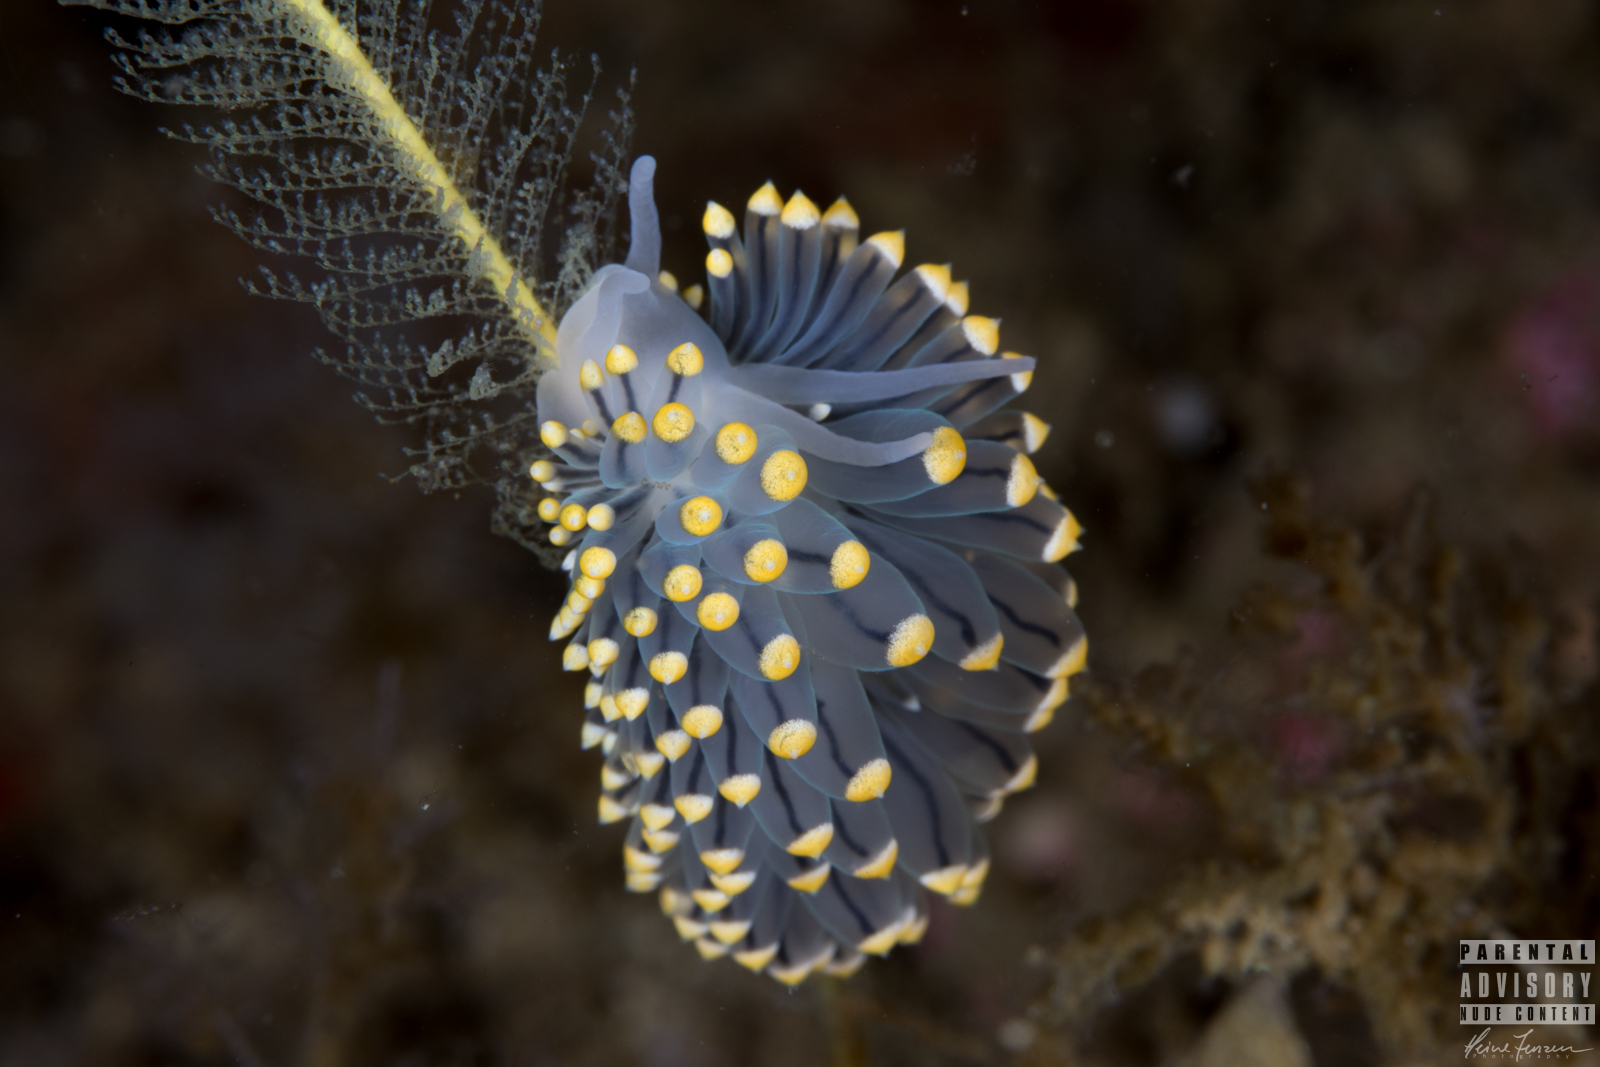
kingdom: Animalia
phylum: Mollusca
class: Gastropoda
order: Nudibranchia
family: Eubranchidae
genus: Eubranchus
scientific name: Eubranchus tricolor
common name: Painted balloon aeolis
